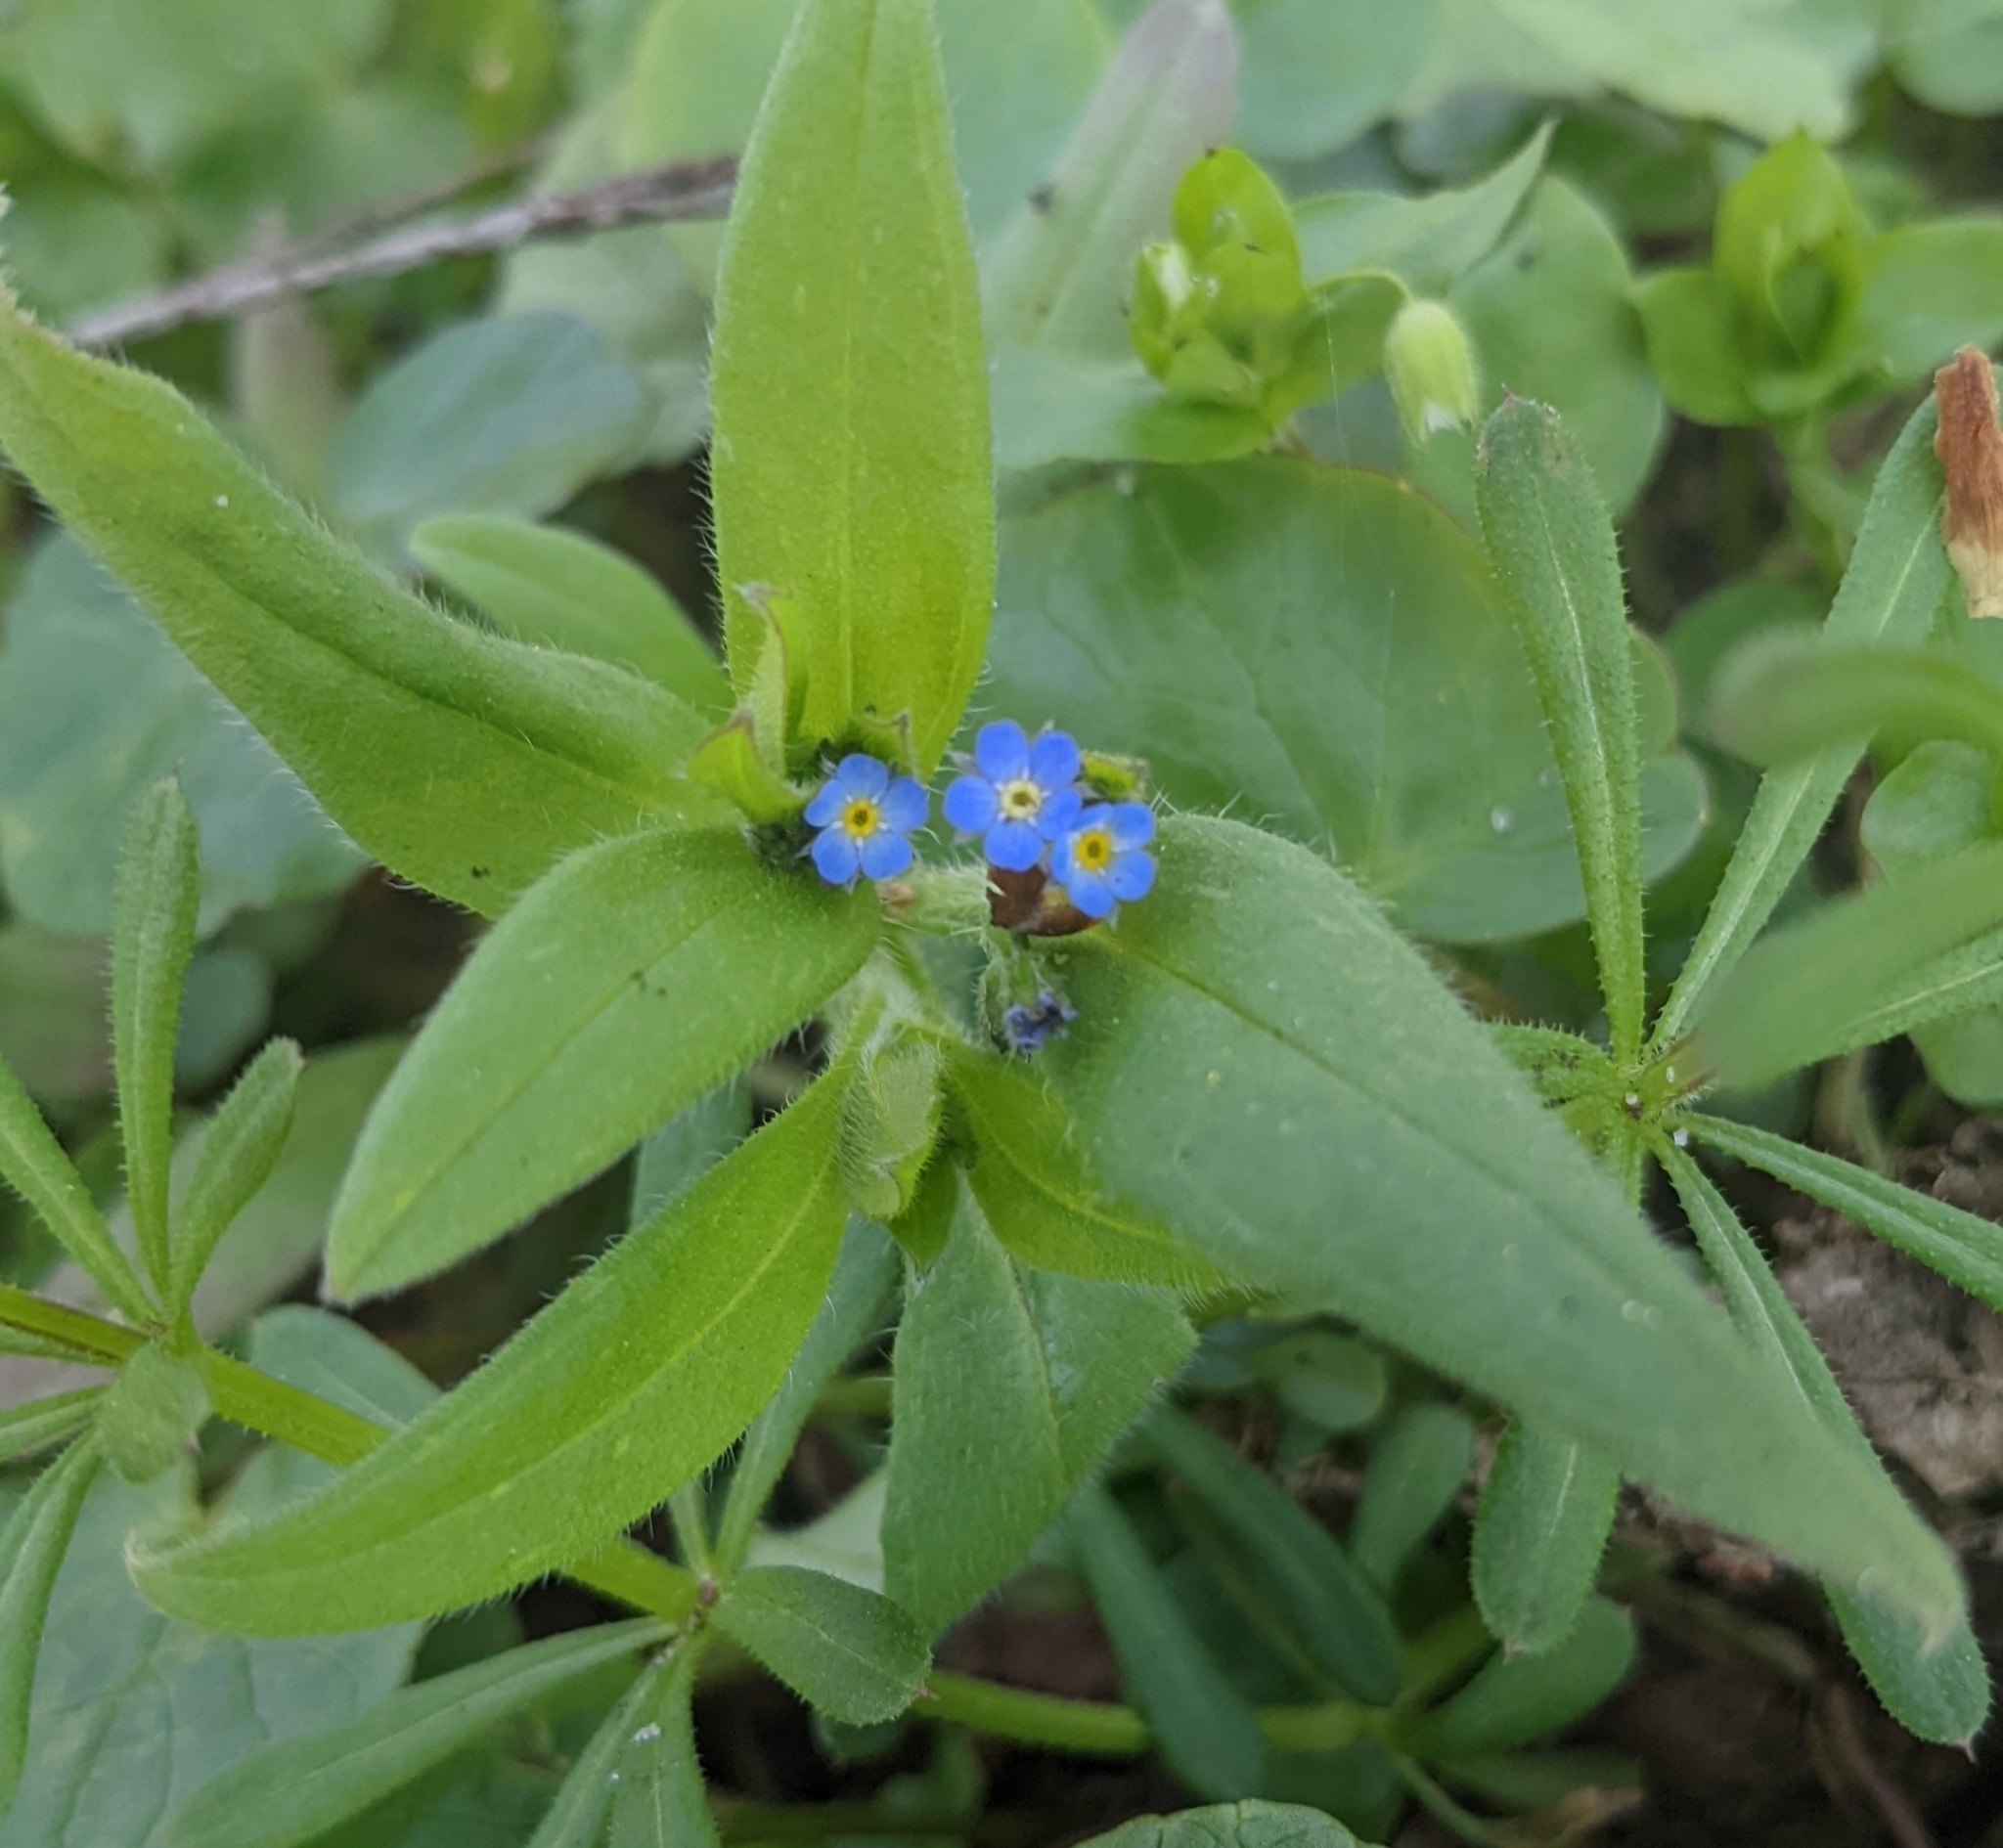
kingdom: Plantae
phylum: Tracheophyta
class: Magnoliopsida
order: Boraginales
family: Boraginaceae
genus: Myosotis
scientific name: Myosotis sparsiflora
